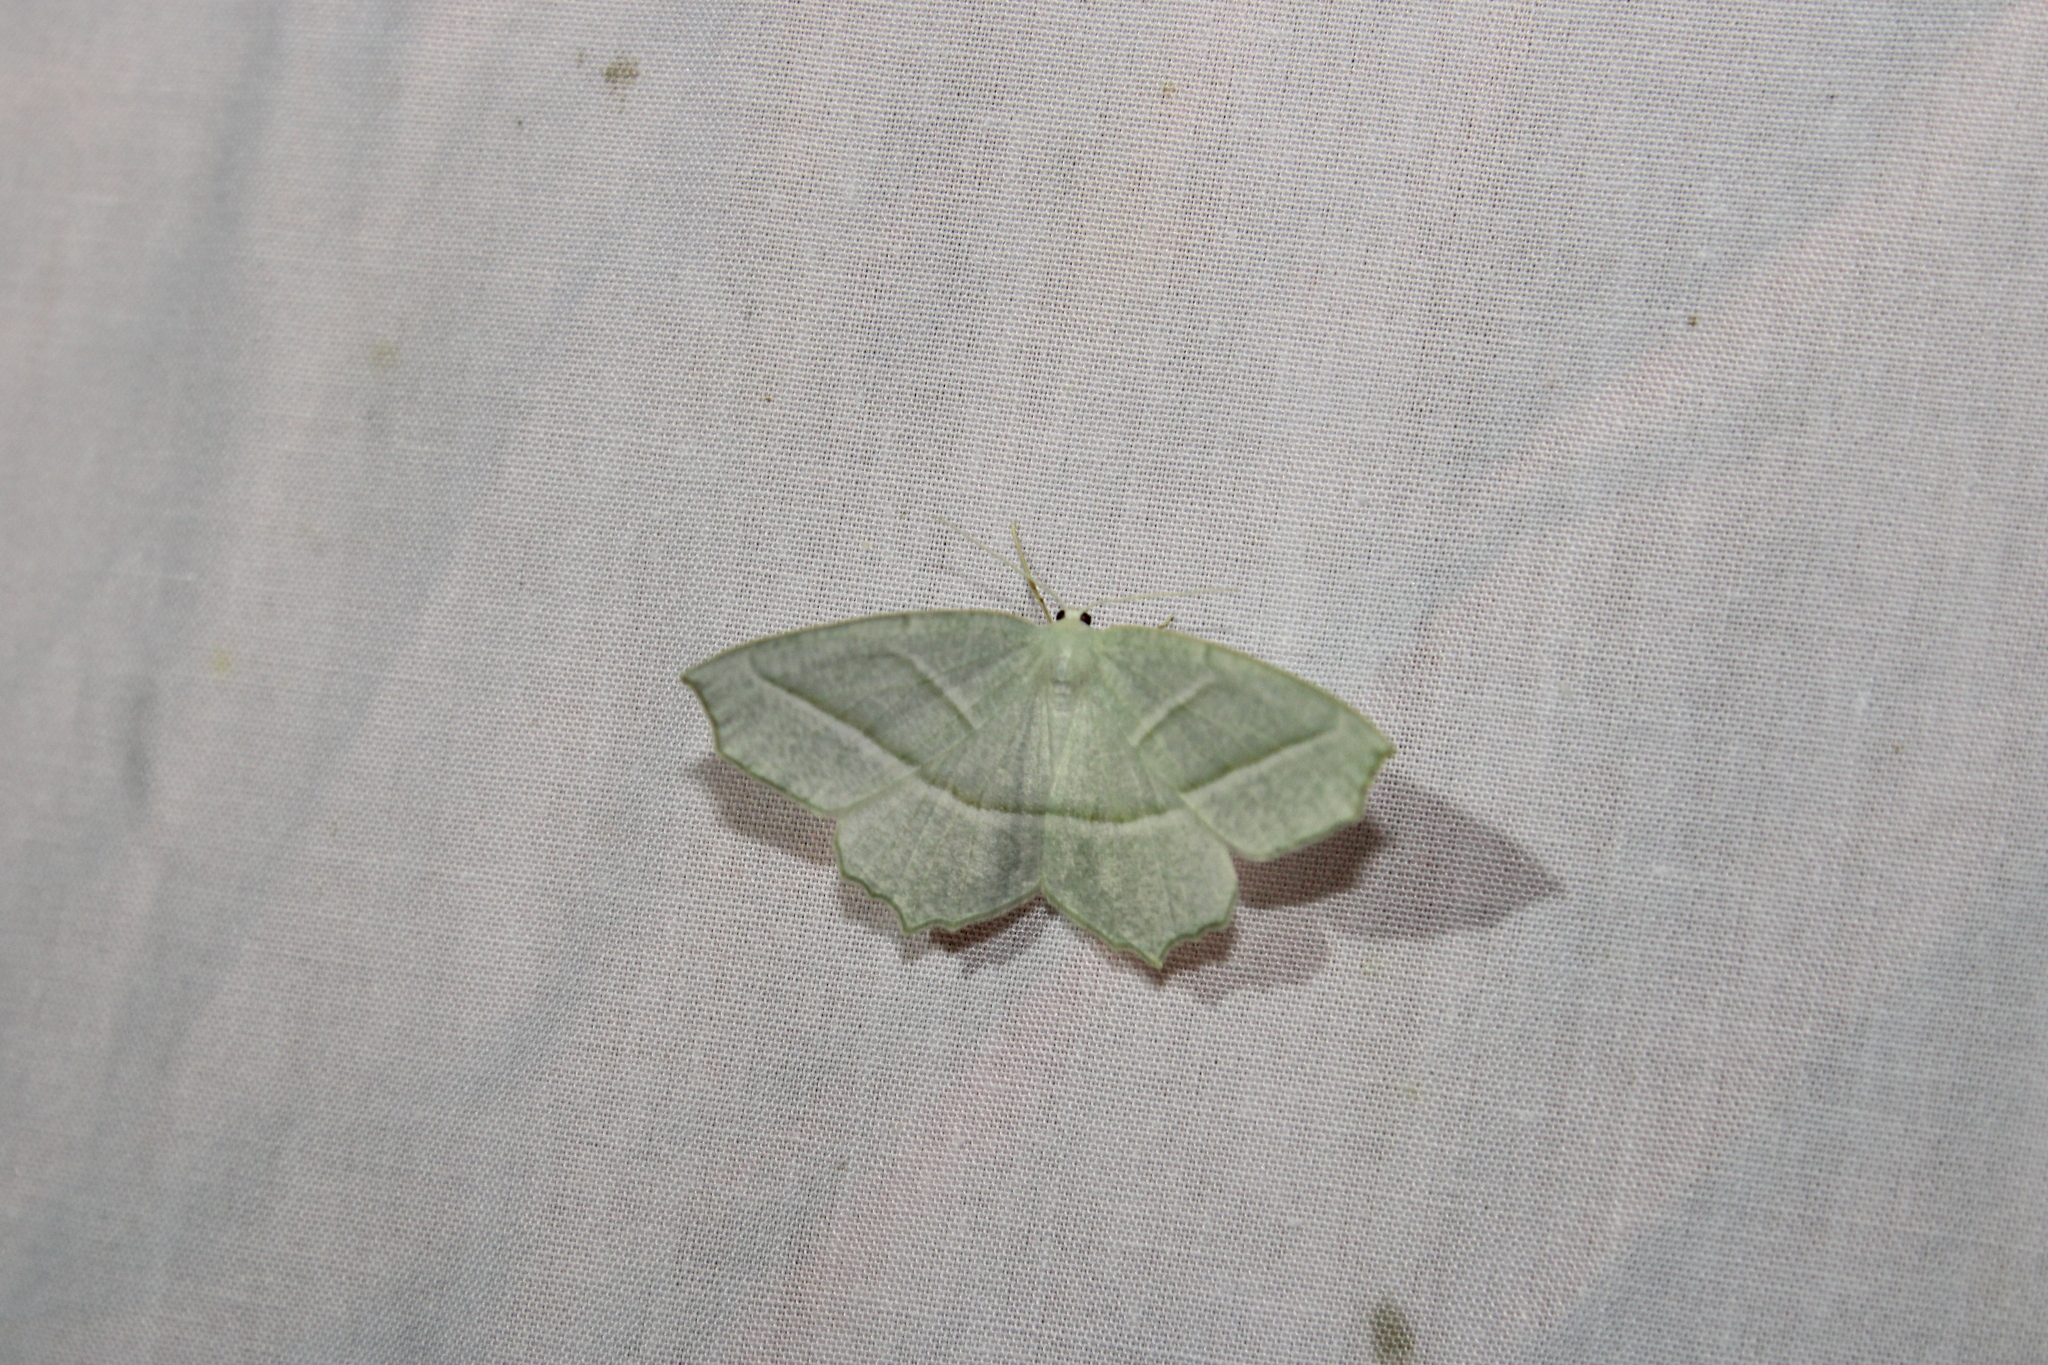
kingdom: Animalia
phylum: Arthropoda
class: Insecta
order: Lepidoptera
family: Geometridae
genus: Campaea
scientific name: Campaea perlata
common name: Fringed looper
